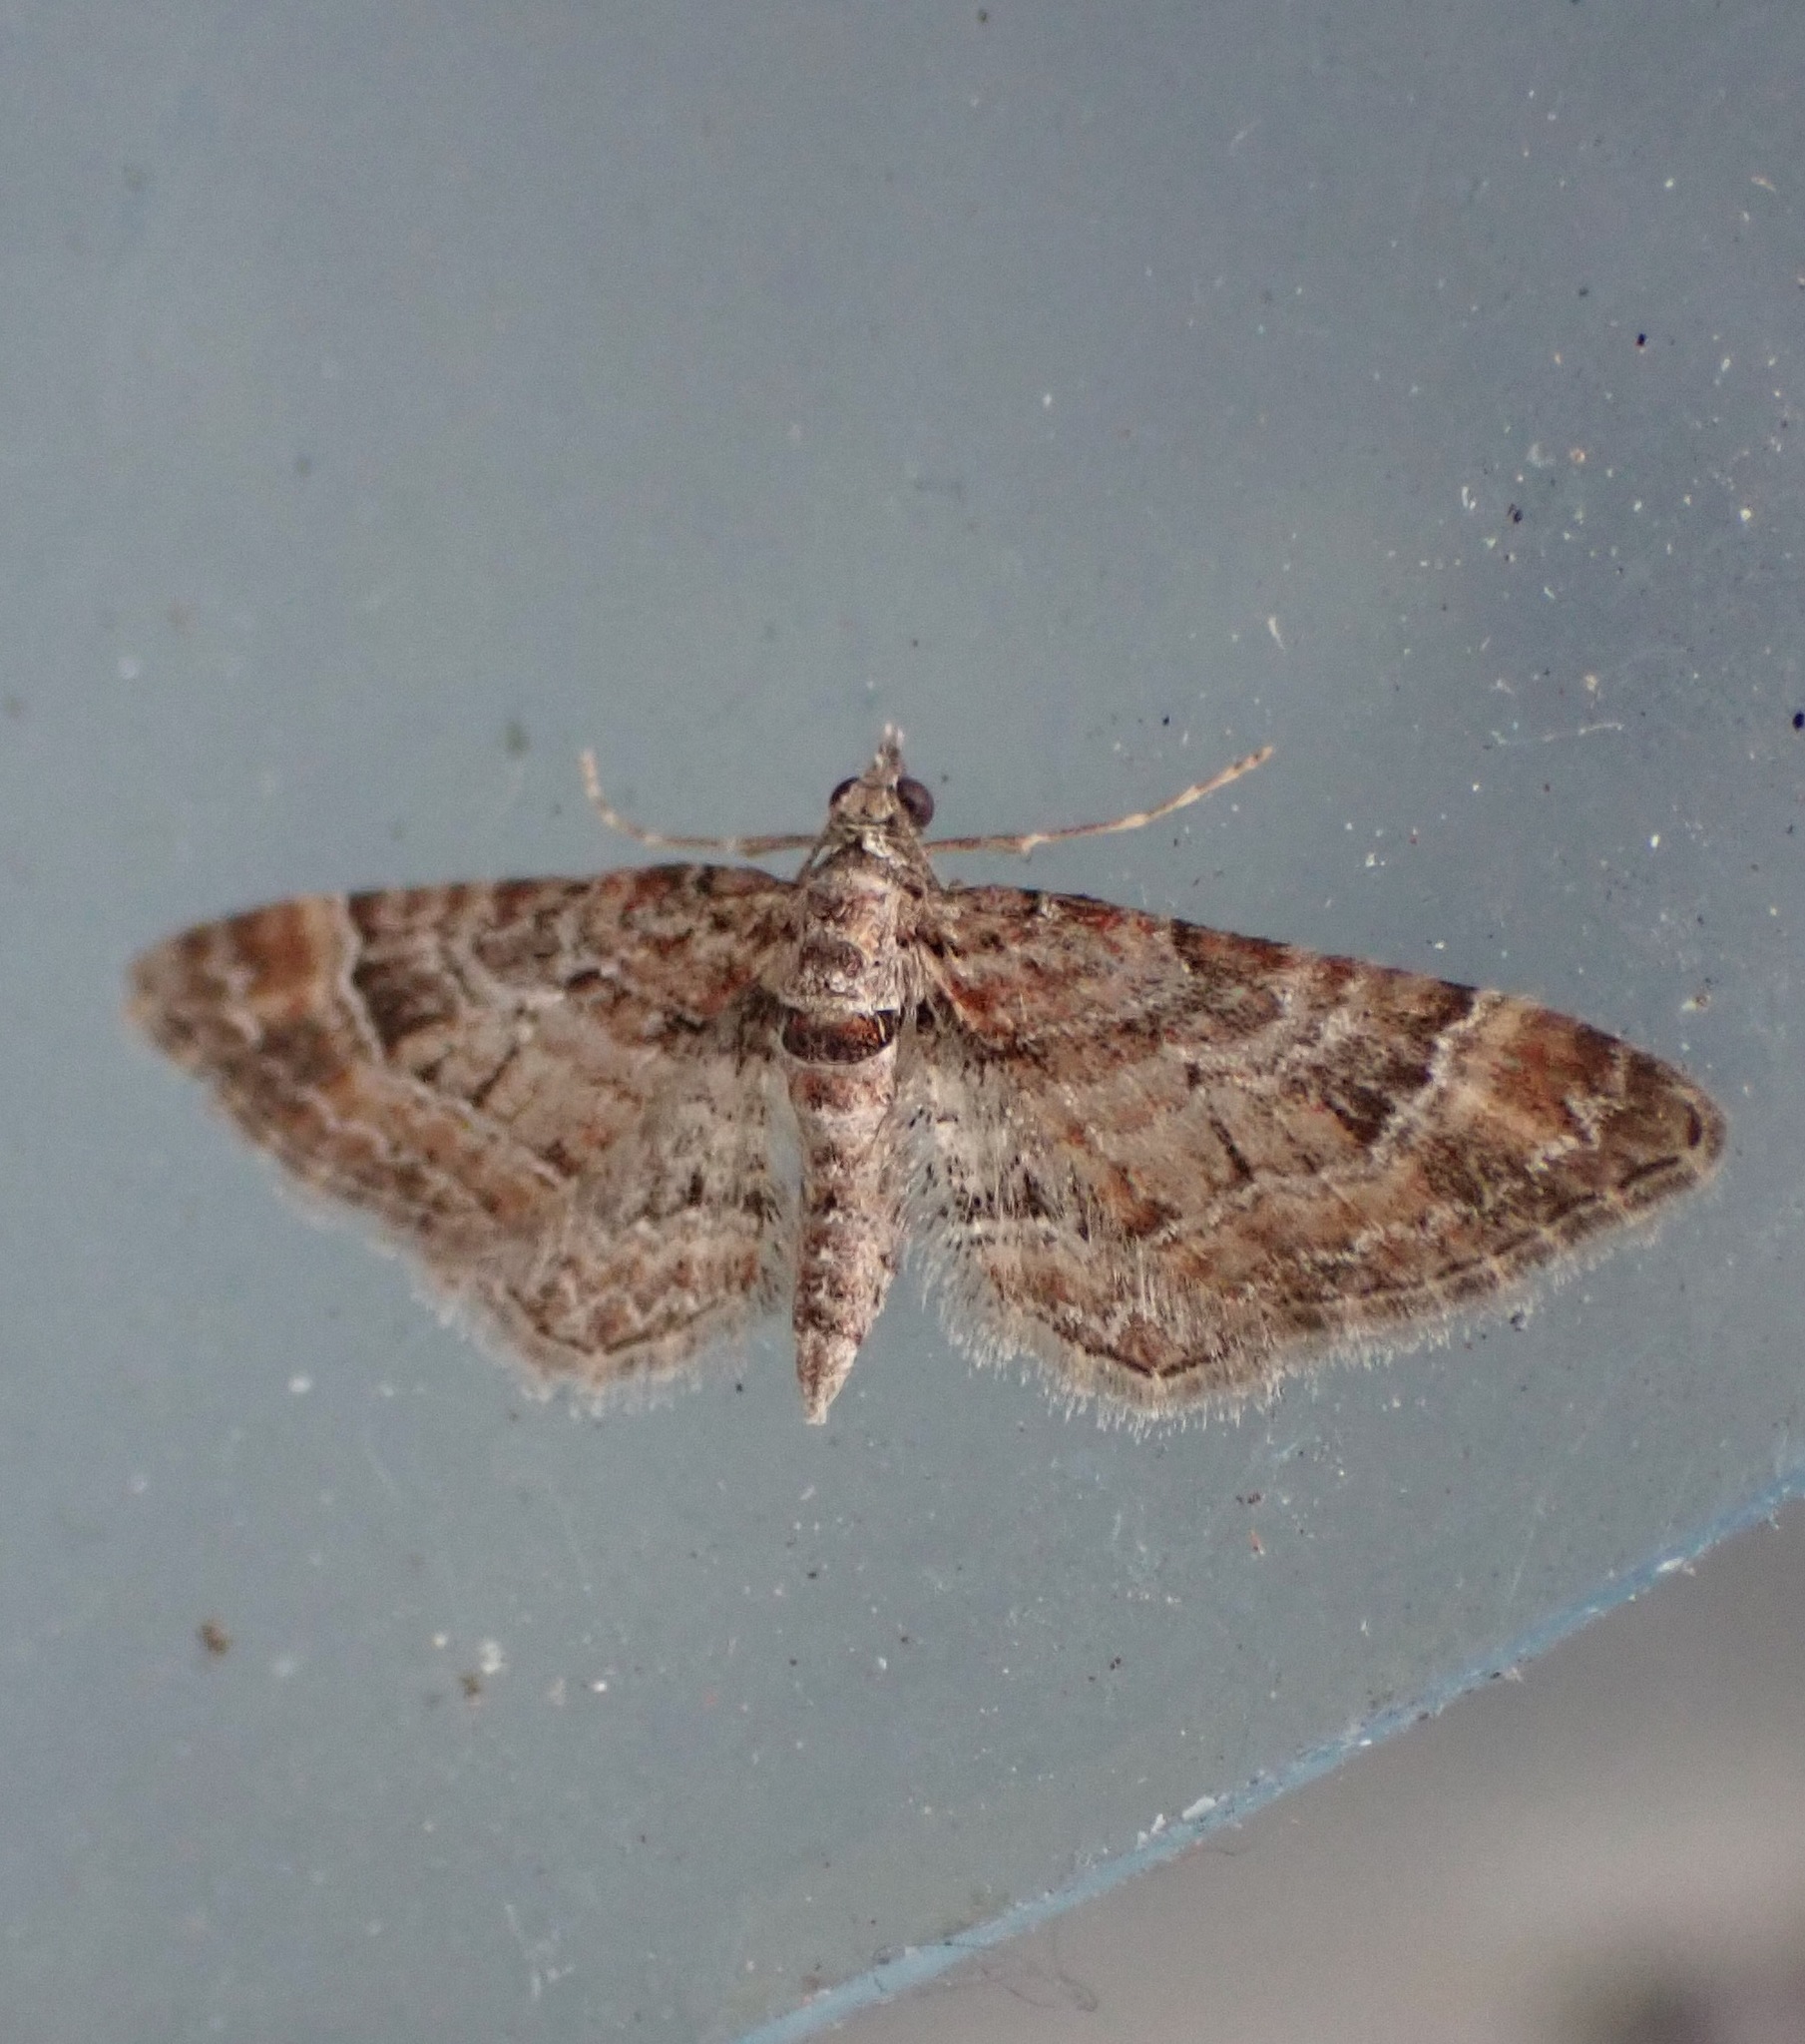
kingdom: Animalia
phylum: Arthropoda
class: Insecta
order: Lepidoptera
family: Geometridae
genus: Gymnoscelis
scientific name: Gymnoscelis rufifasciata
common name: Double-striped pug
